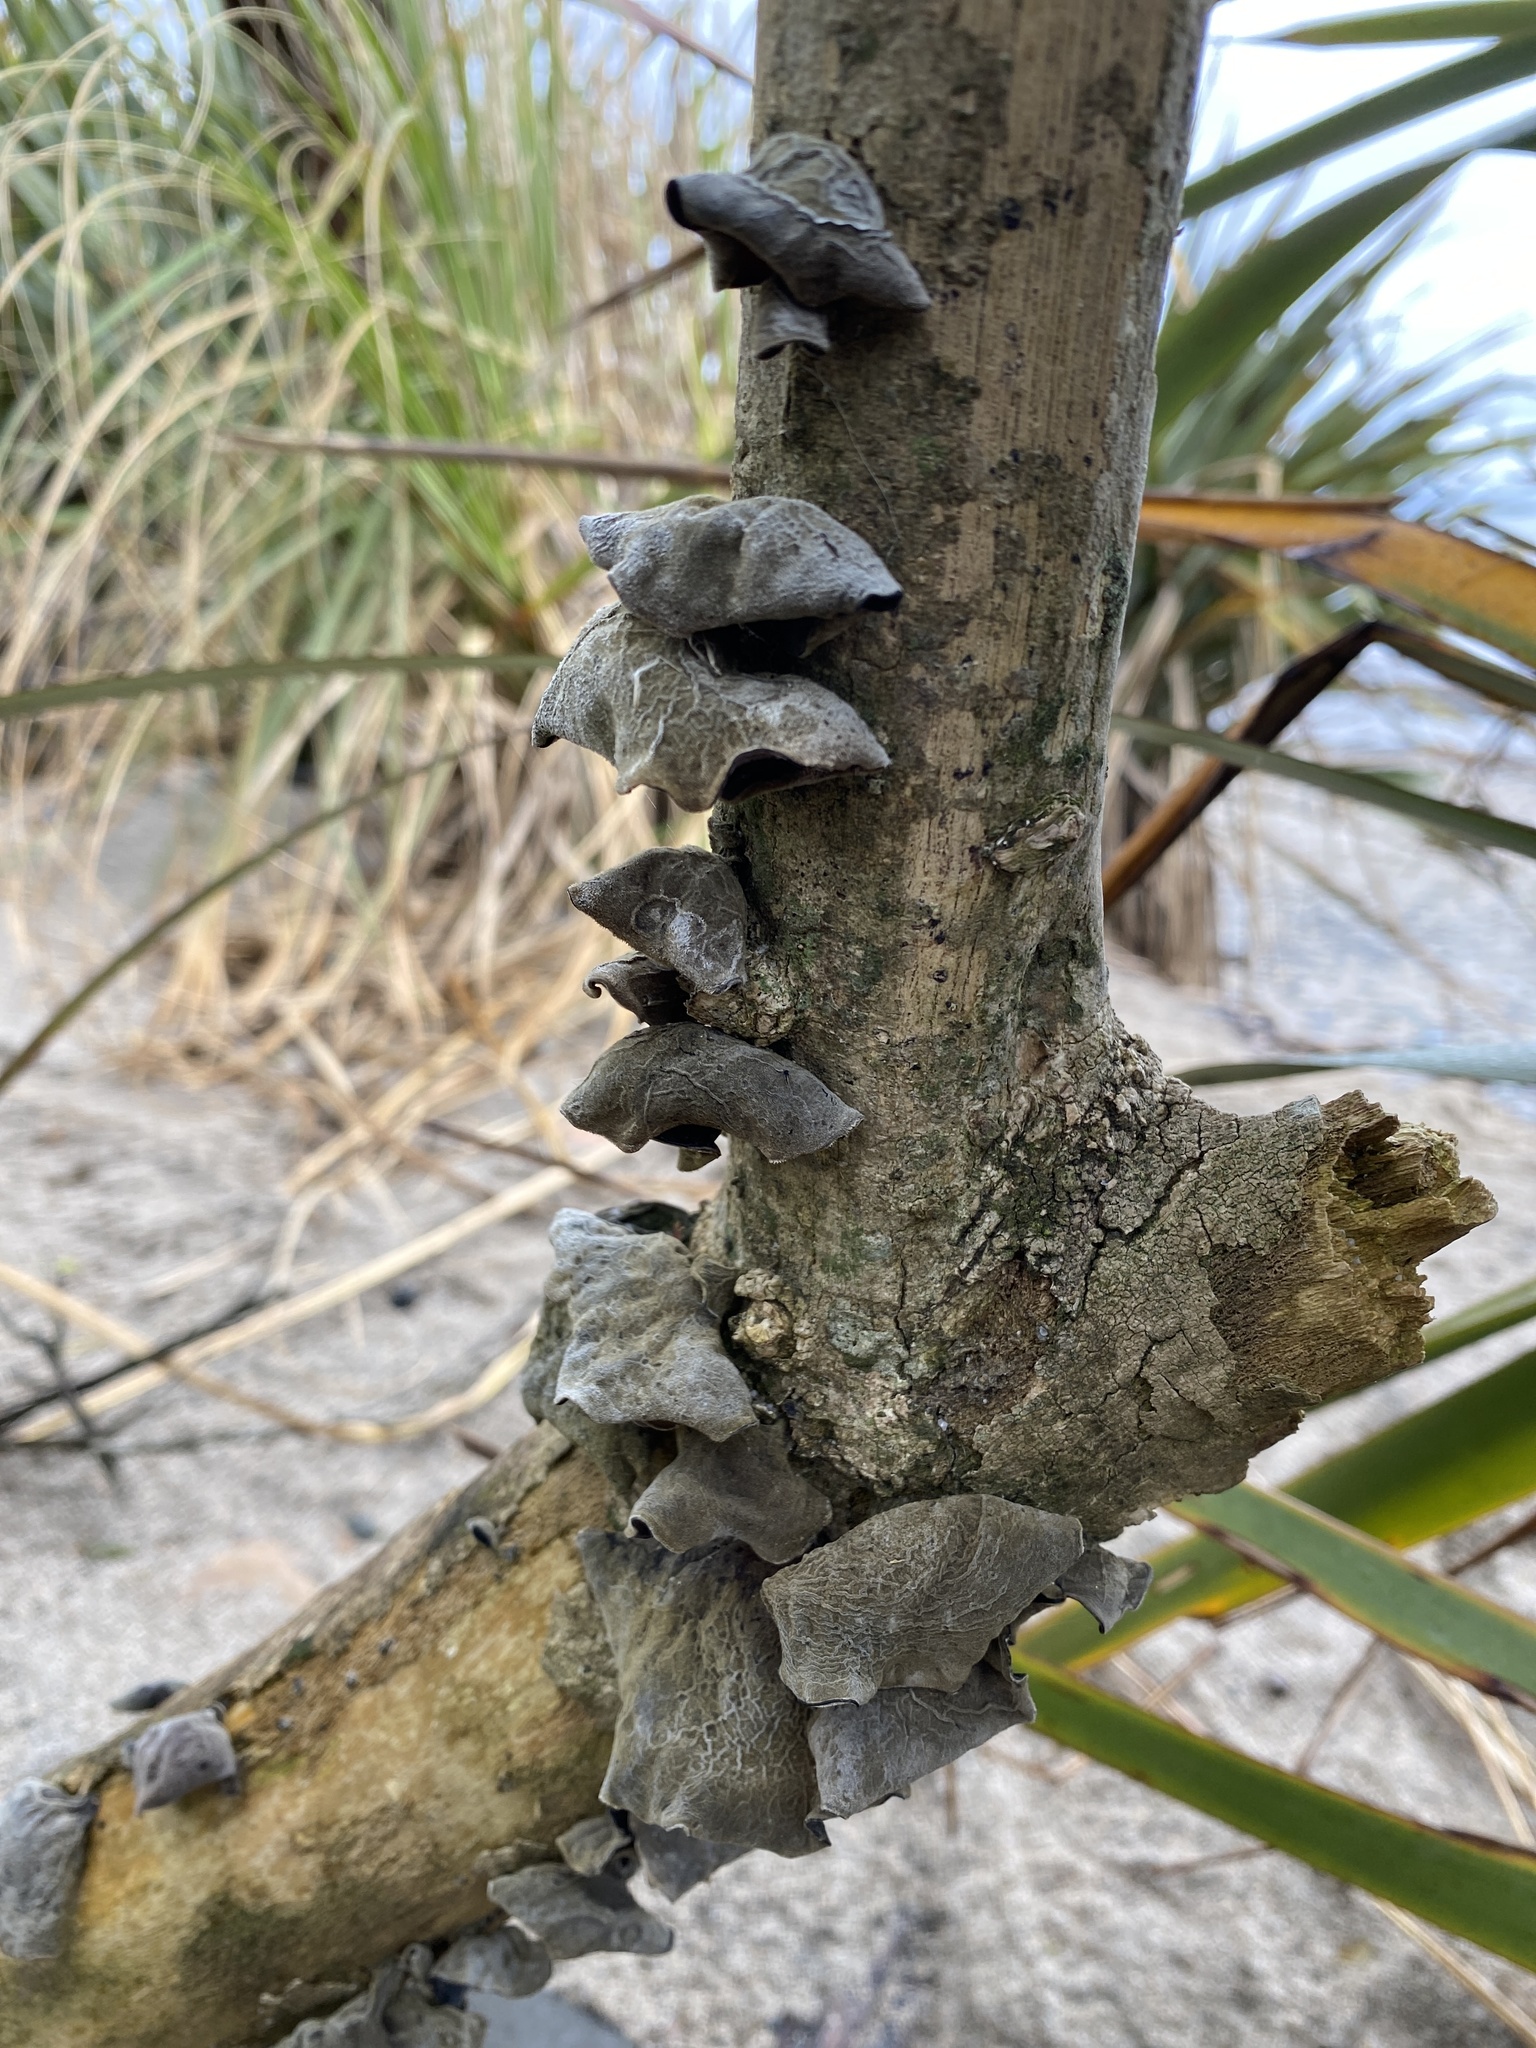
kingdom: Fungi
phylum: Basidiomycota
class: Agaricomycetes
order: Auriculariales
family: Auriculariaceae
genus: Auricularia
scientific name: Auricularia cornea
